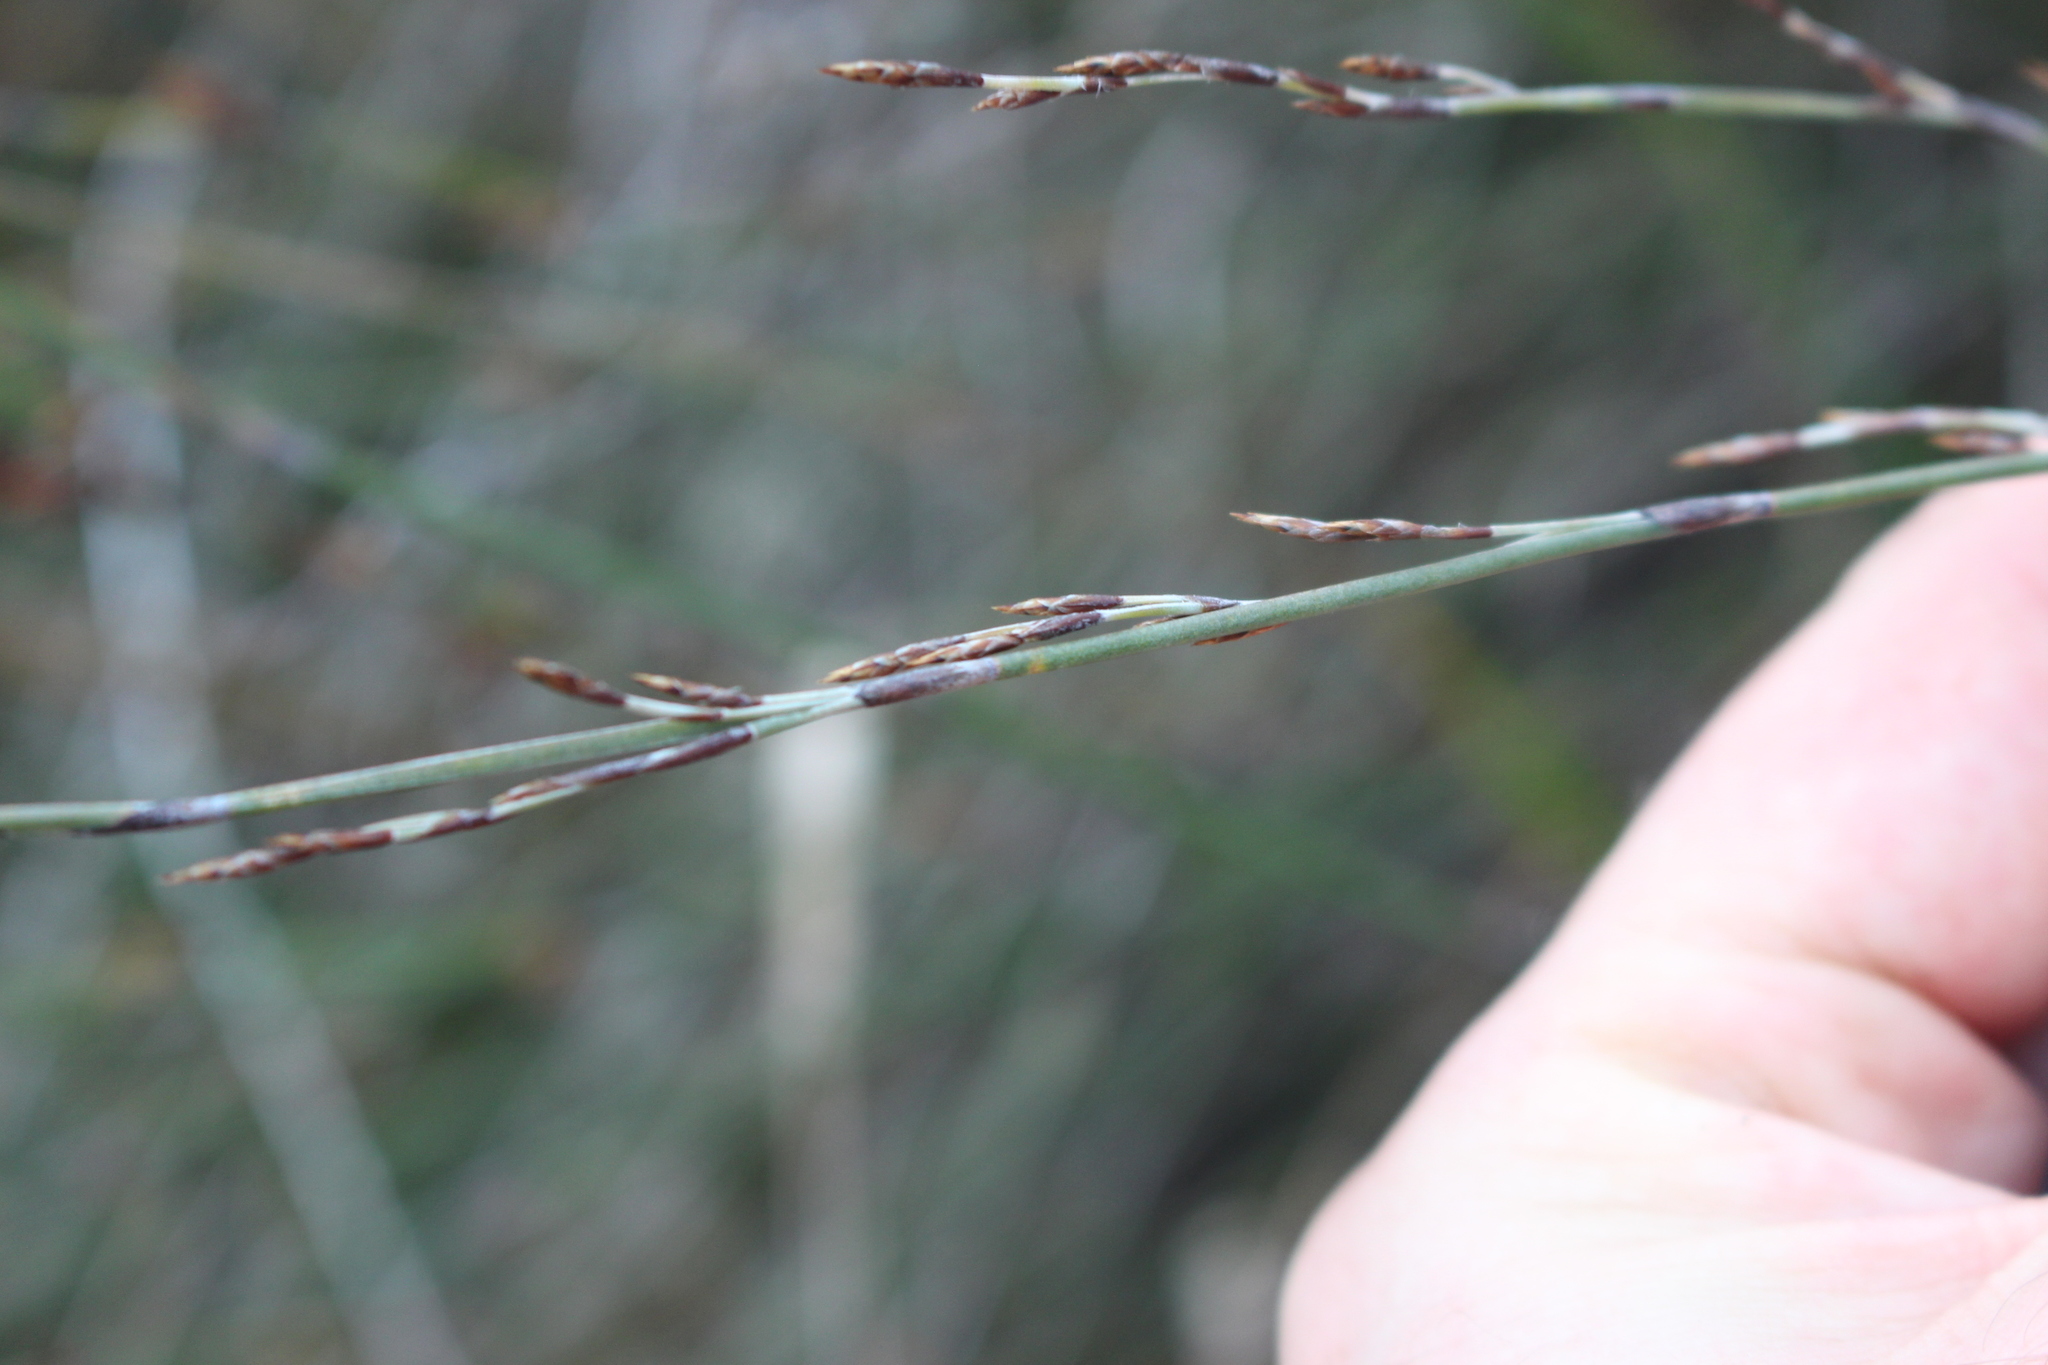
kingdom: Plantae
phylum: Tracheophyta
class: Liliopsida
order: Poales
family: Restionaceae
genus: Apodasmia
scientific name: Apodasmia similis
